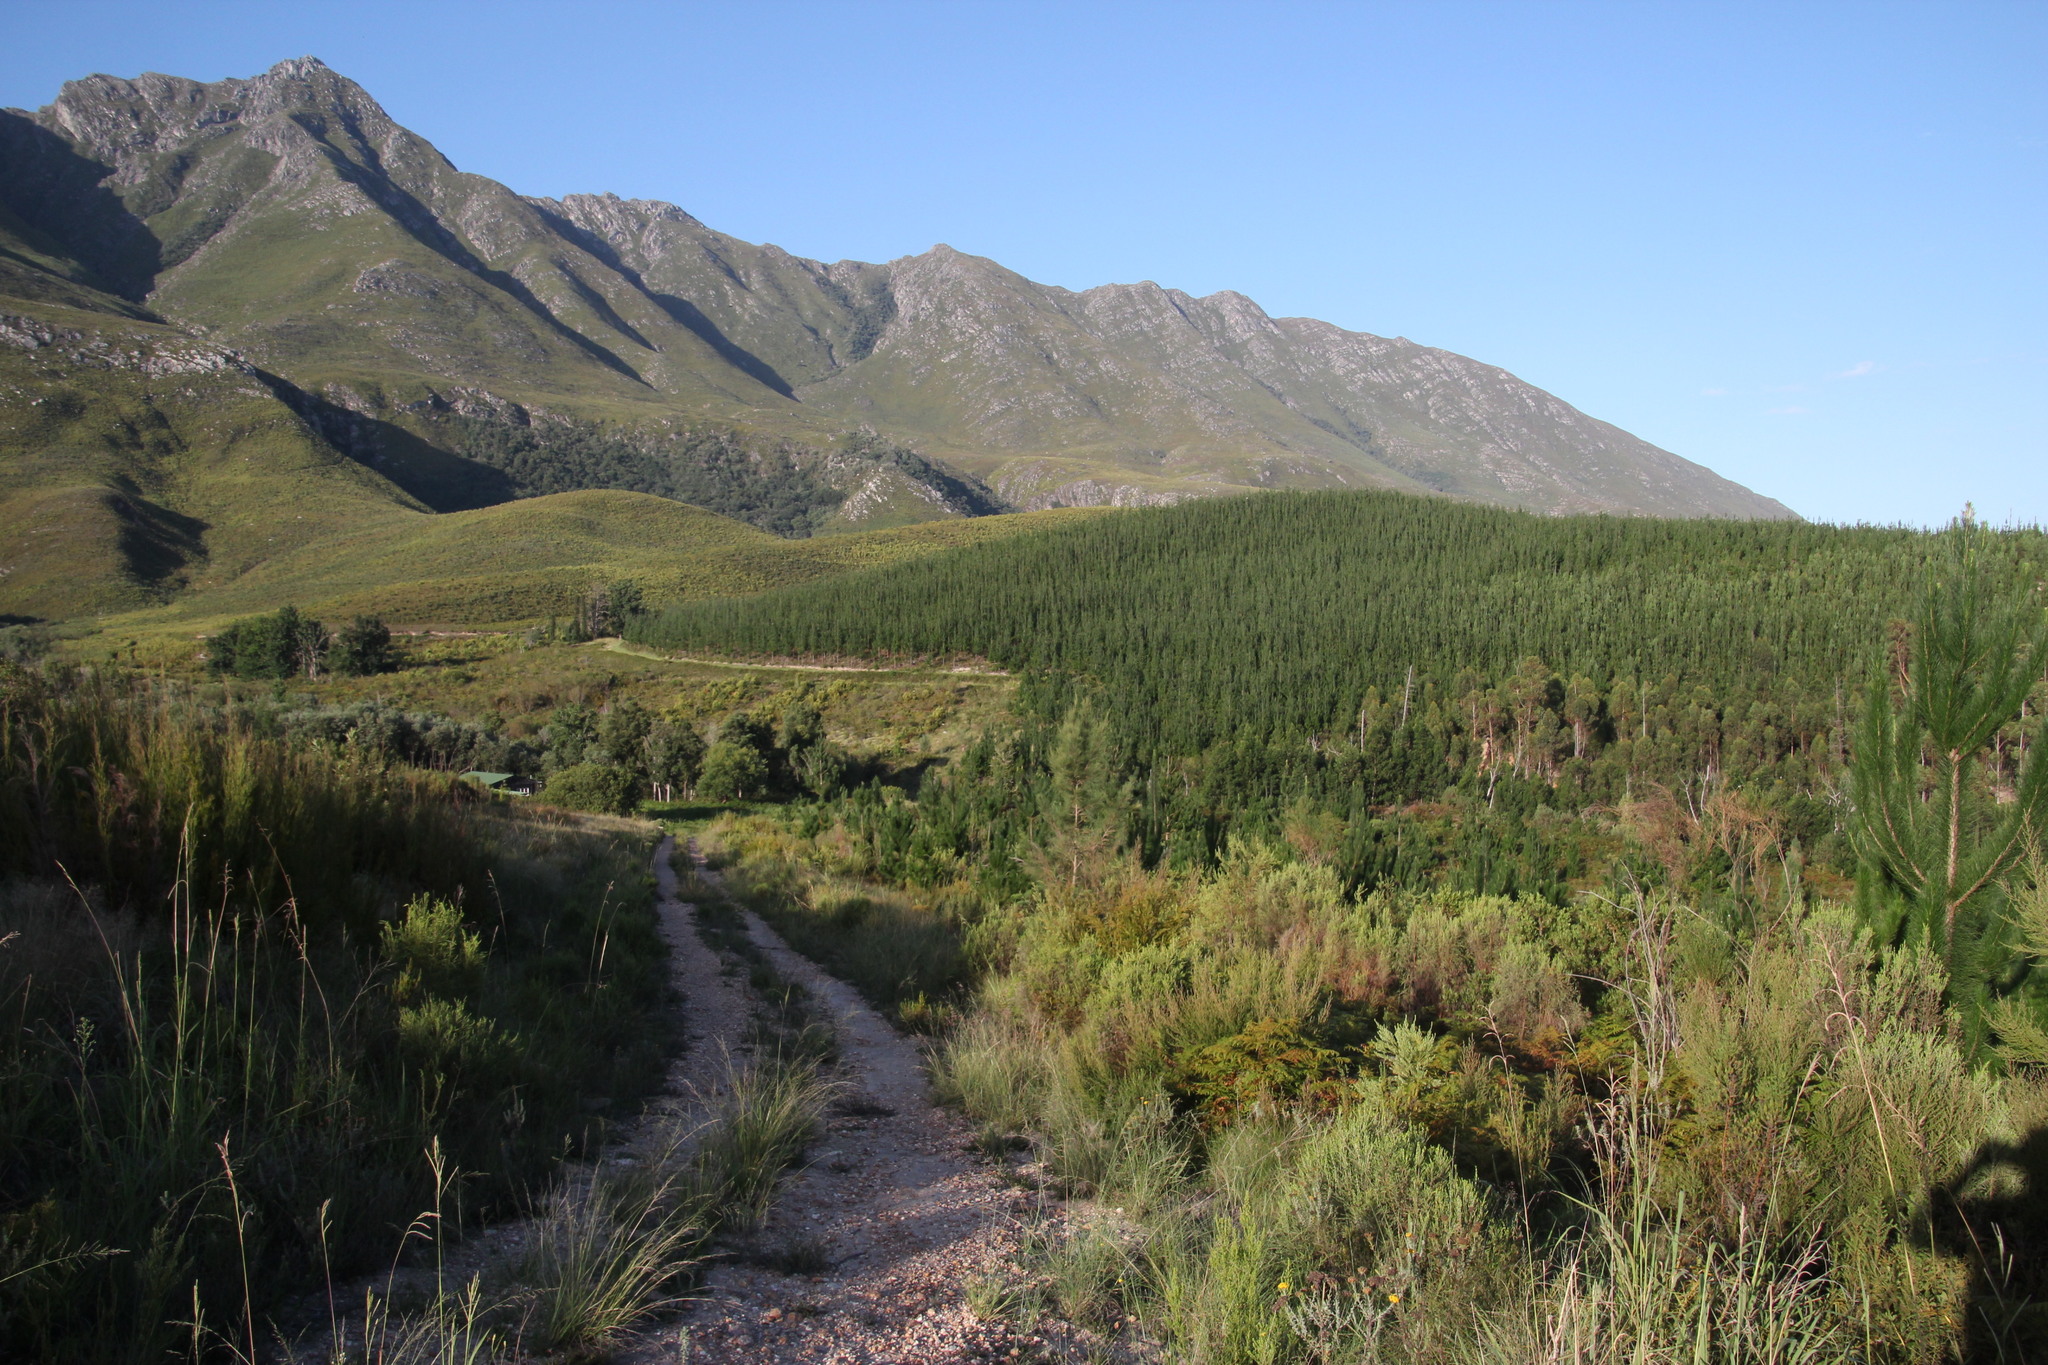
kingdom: Plantae
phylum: Tracheophyta
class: Magnoliopsida
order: Fagales
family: Casuarinaceae
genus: Casuarina
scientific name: Casuarina cunninghamiana
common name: River sheoak
